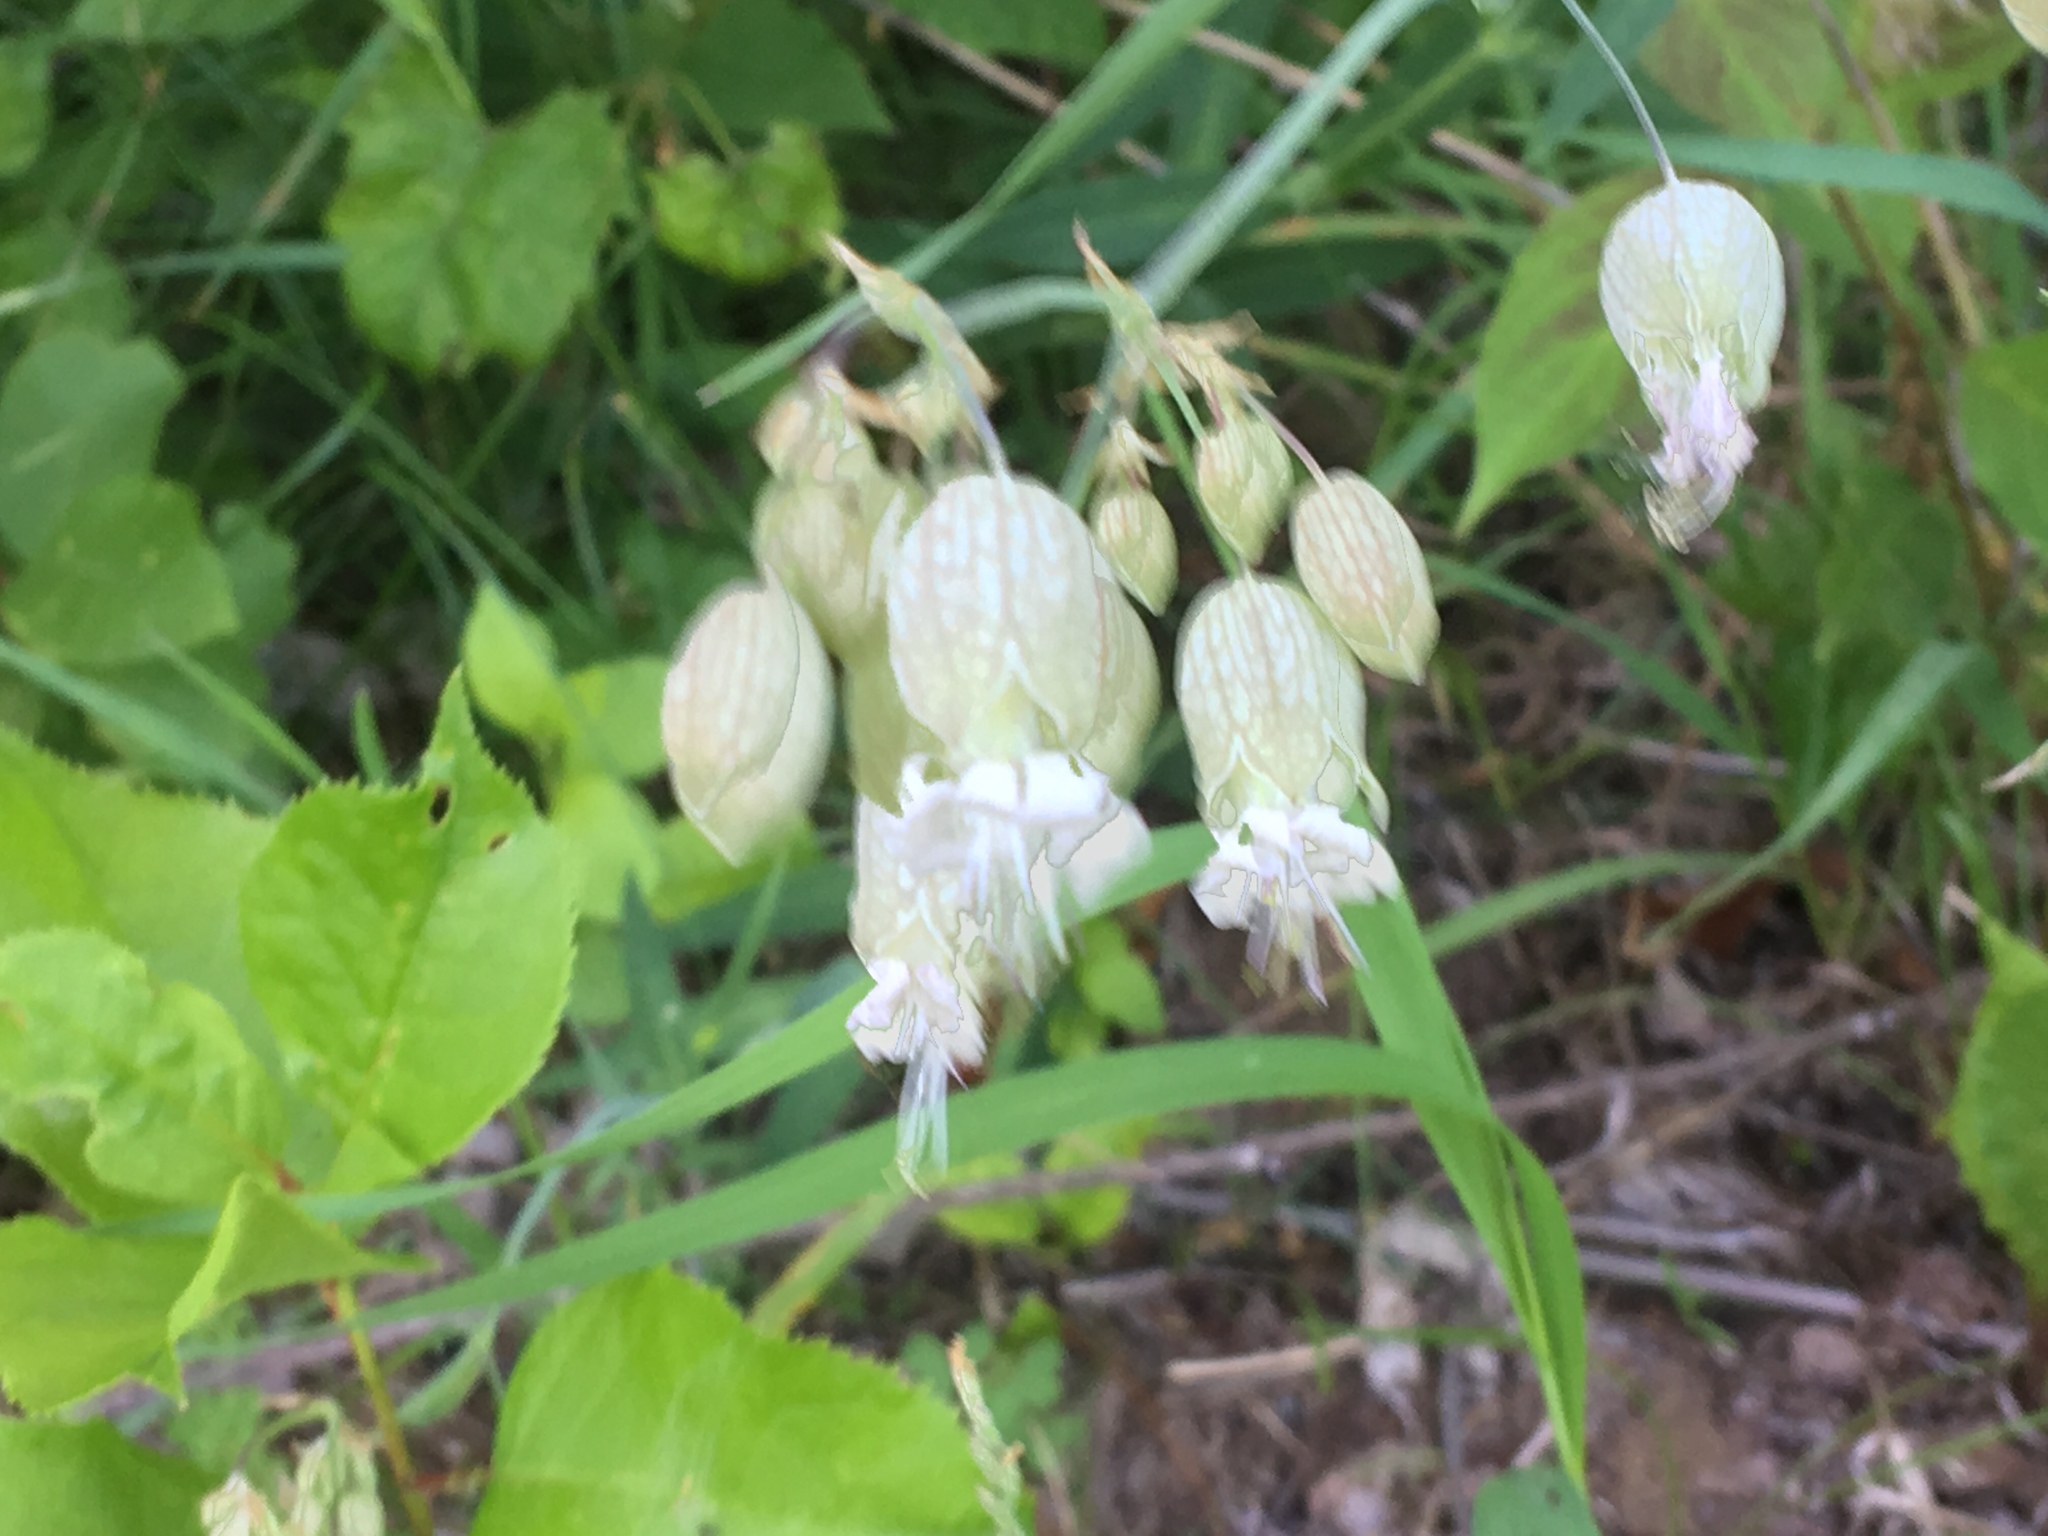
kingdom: Plantae
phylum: Tracheophyta
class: Magnoliopsida
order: Caryophyllales
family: Caryophyllaceae
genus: Silene
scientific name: Silene vulgaris
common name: Bladder campion
